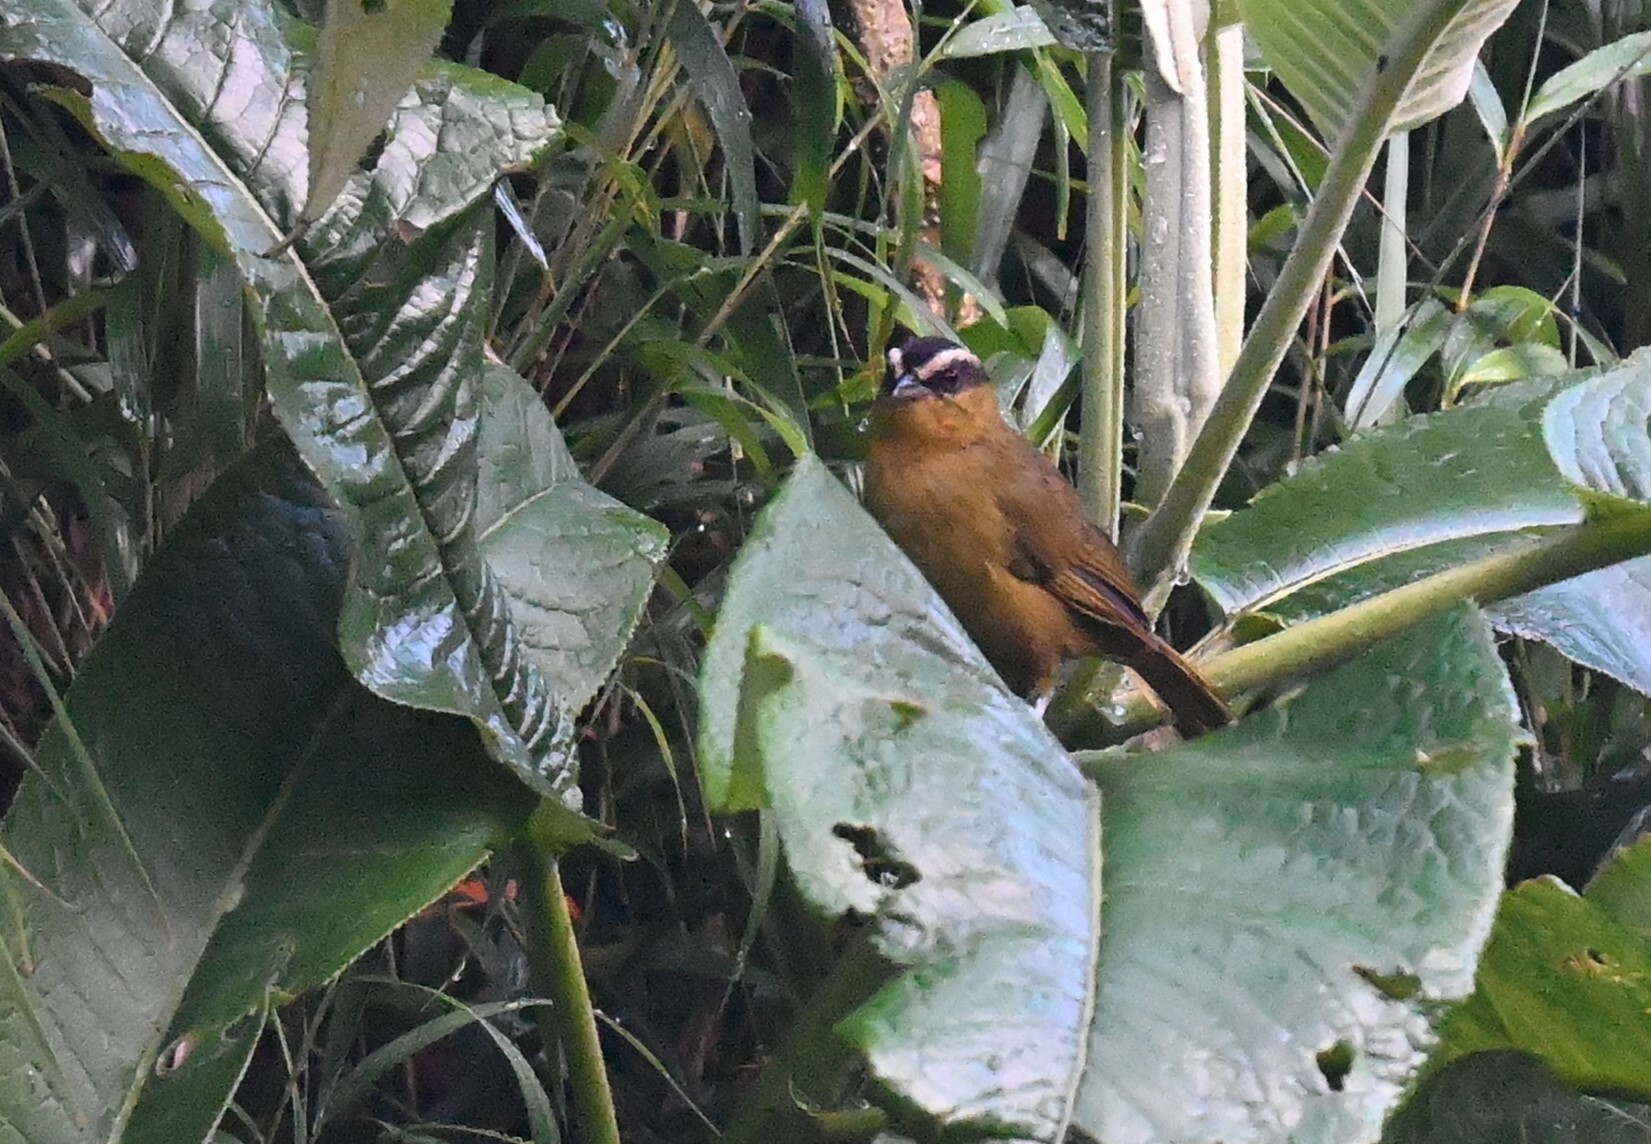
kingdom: Animalia
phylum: Chordata
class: Aves
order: Passeriformes
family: Thraupidae
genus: Kleinothraupis
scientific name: Kleinothraupis atropileus
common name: Black-capped hemispingus
